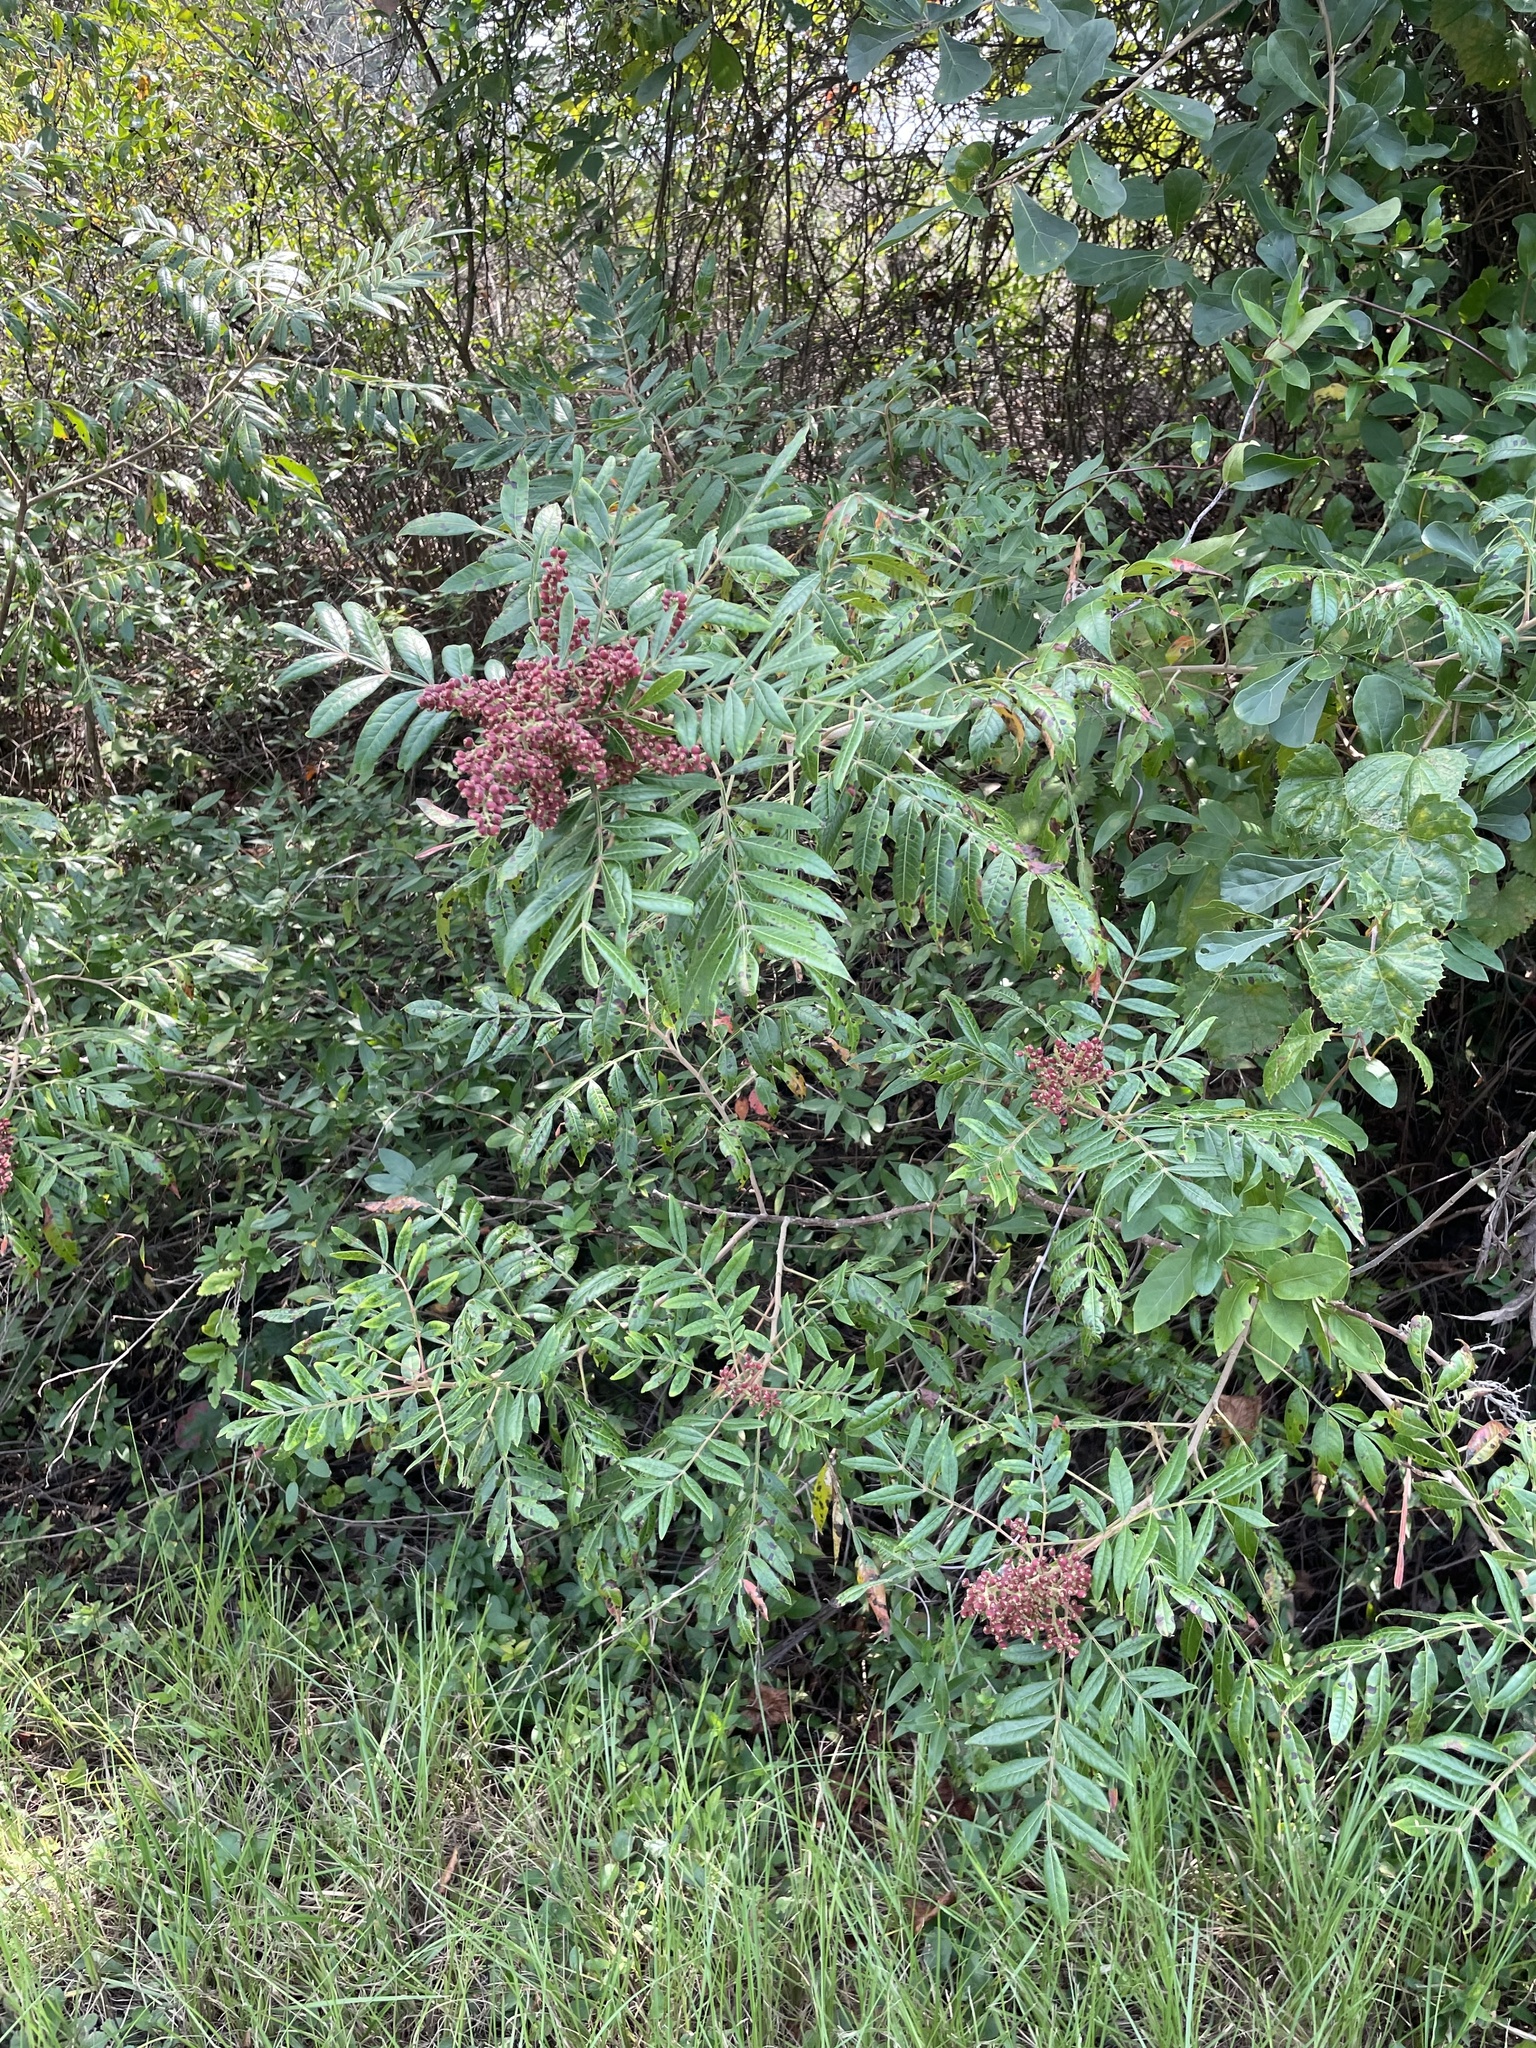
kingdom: Plantae
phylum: Tracheophyta
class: Magnoliopsida
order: Sapindales
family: Anacardiaceae
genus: Rhus
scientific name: Rhus copallina
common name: Shining sumac
